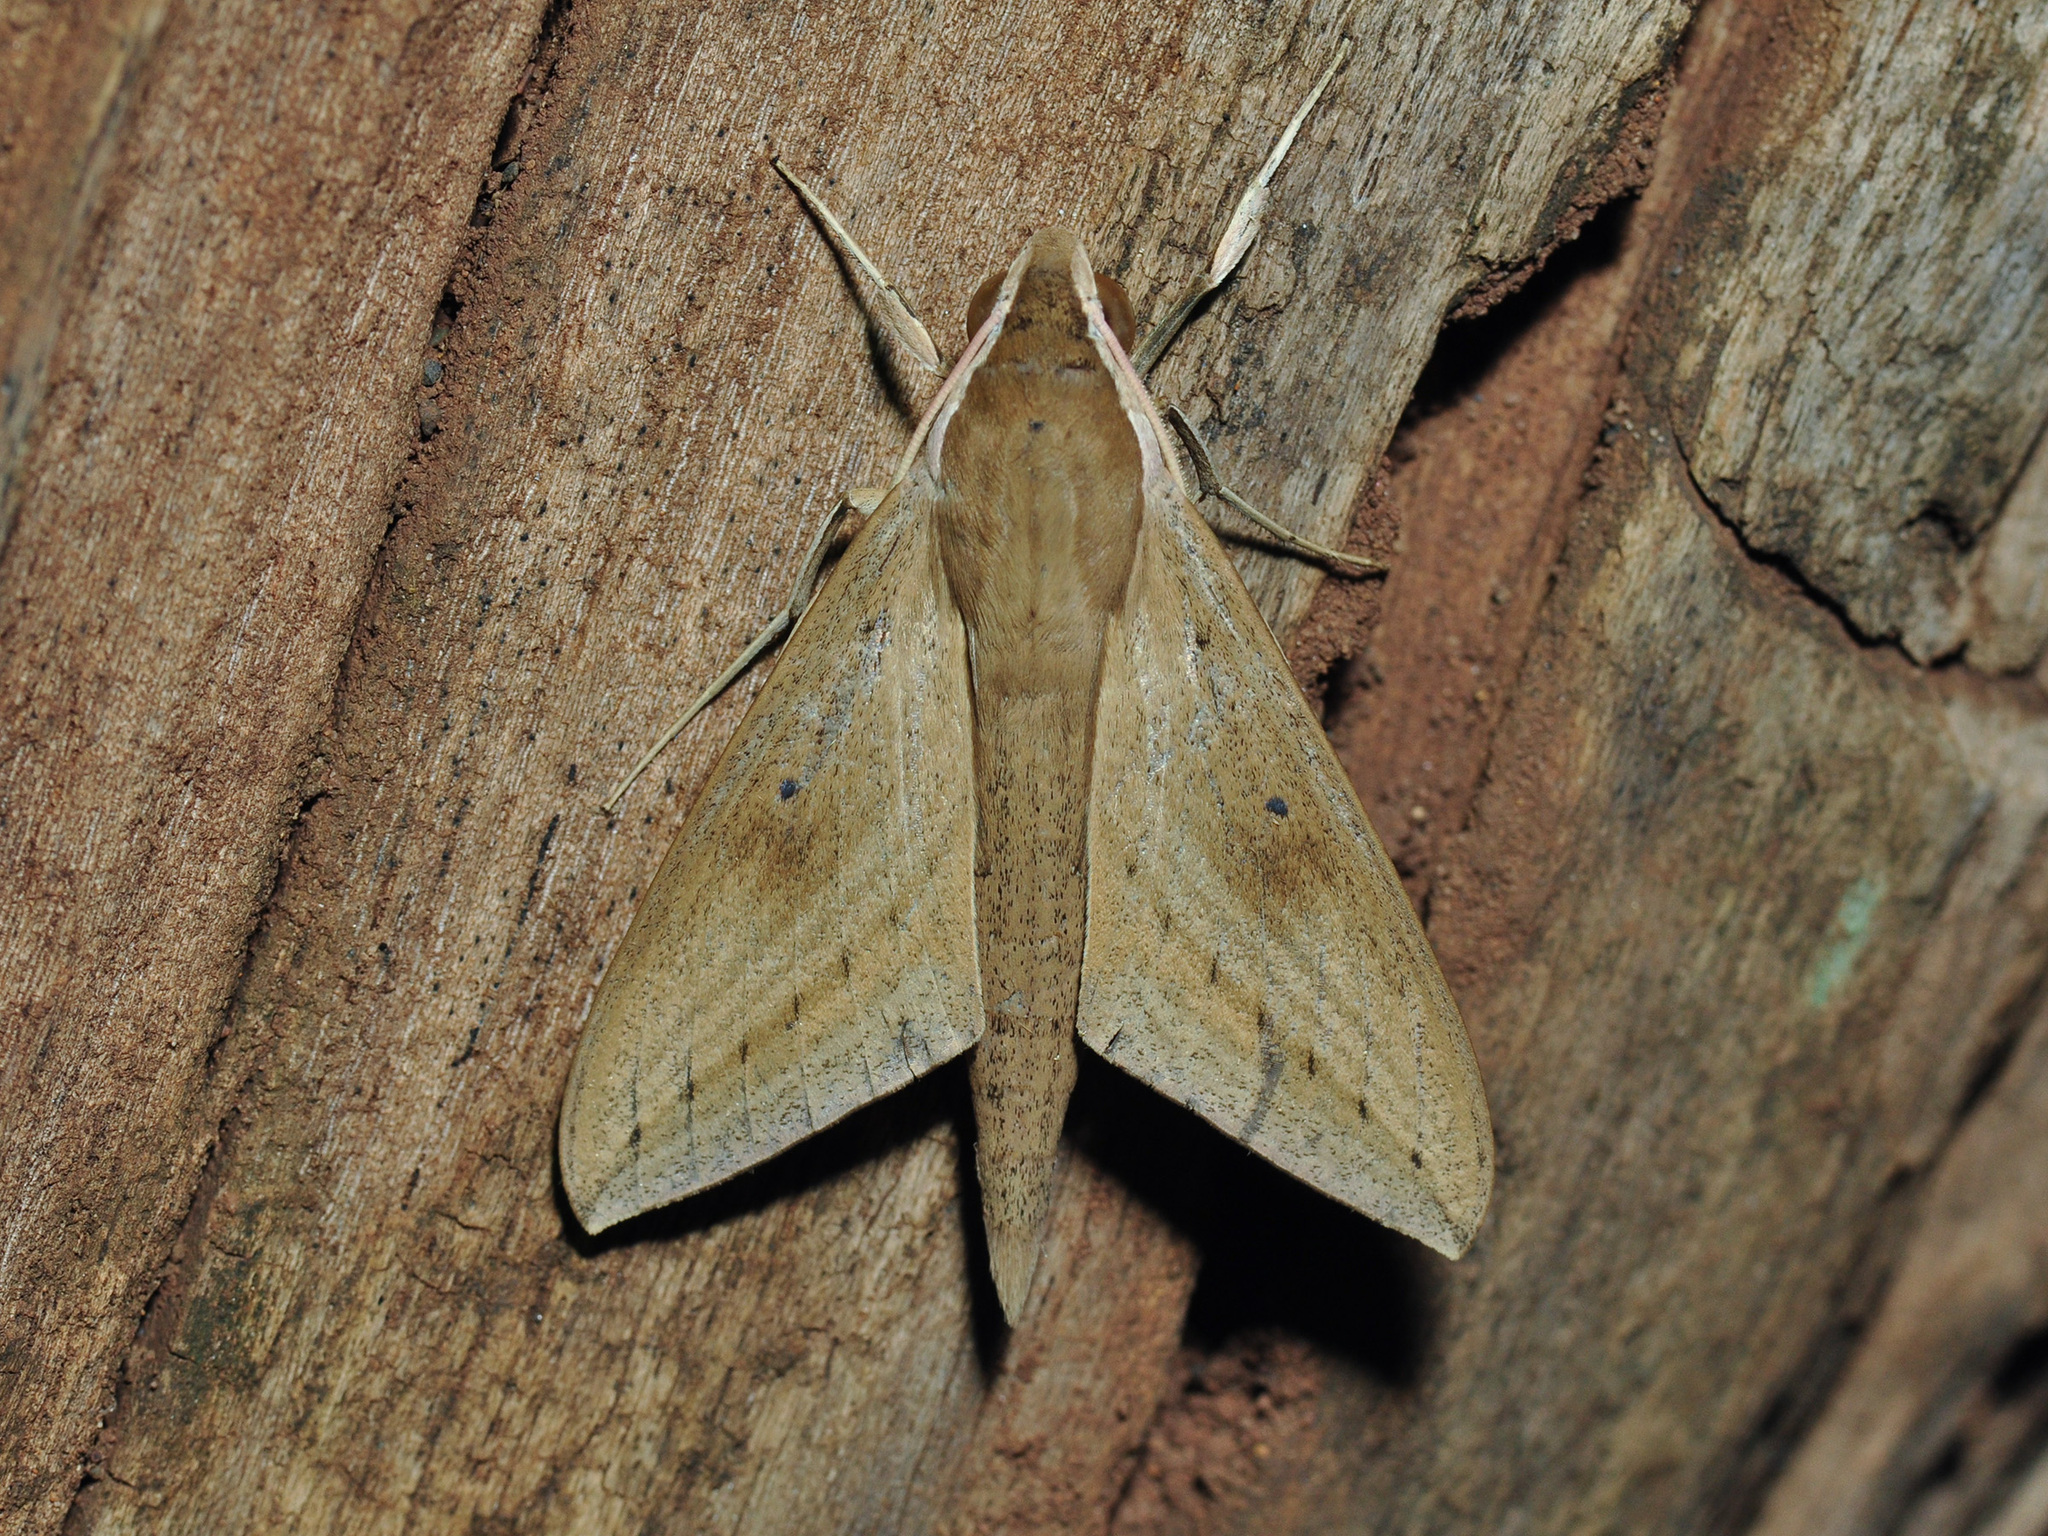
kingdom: Animalia
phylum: Arthropoda
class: Insecta
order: Lepidoptera
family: Sphingidae
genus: Theretra
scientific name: Theretra rhesus
